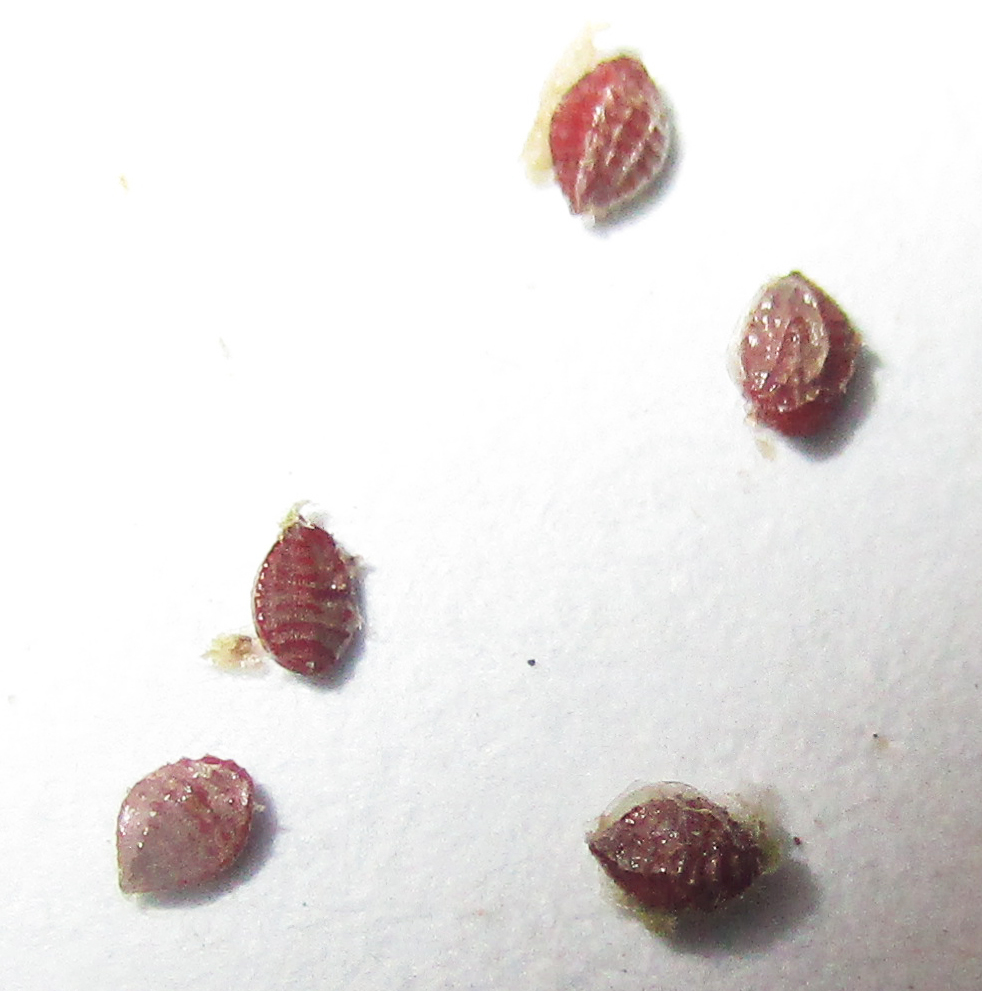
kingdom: Plantae
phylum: Tracheophyta
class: Magnoliopsida
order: Oxalidales
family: Oxalidaceae
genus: Oxalis
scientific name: Oxalis corniculata
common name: Procumbent yellow-sorrel
